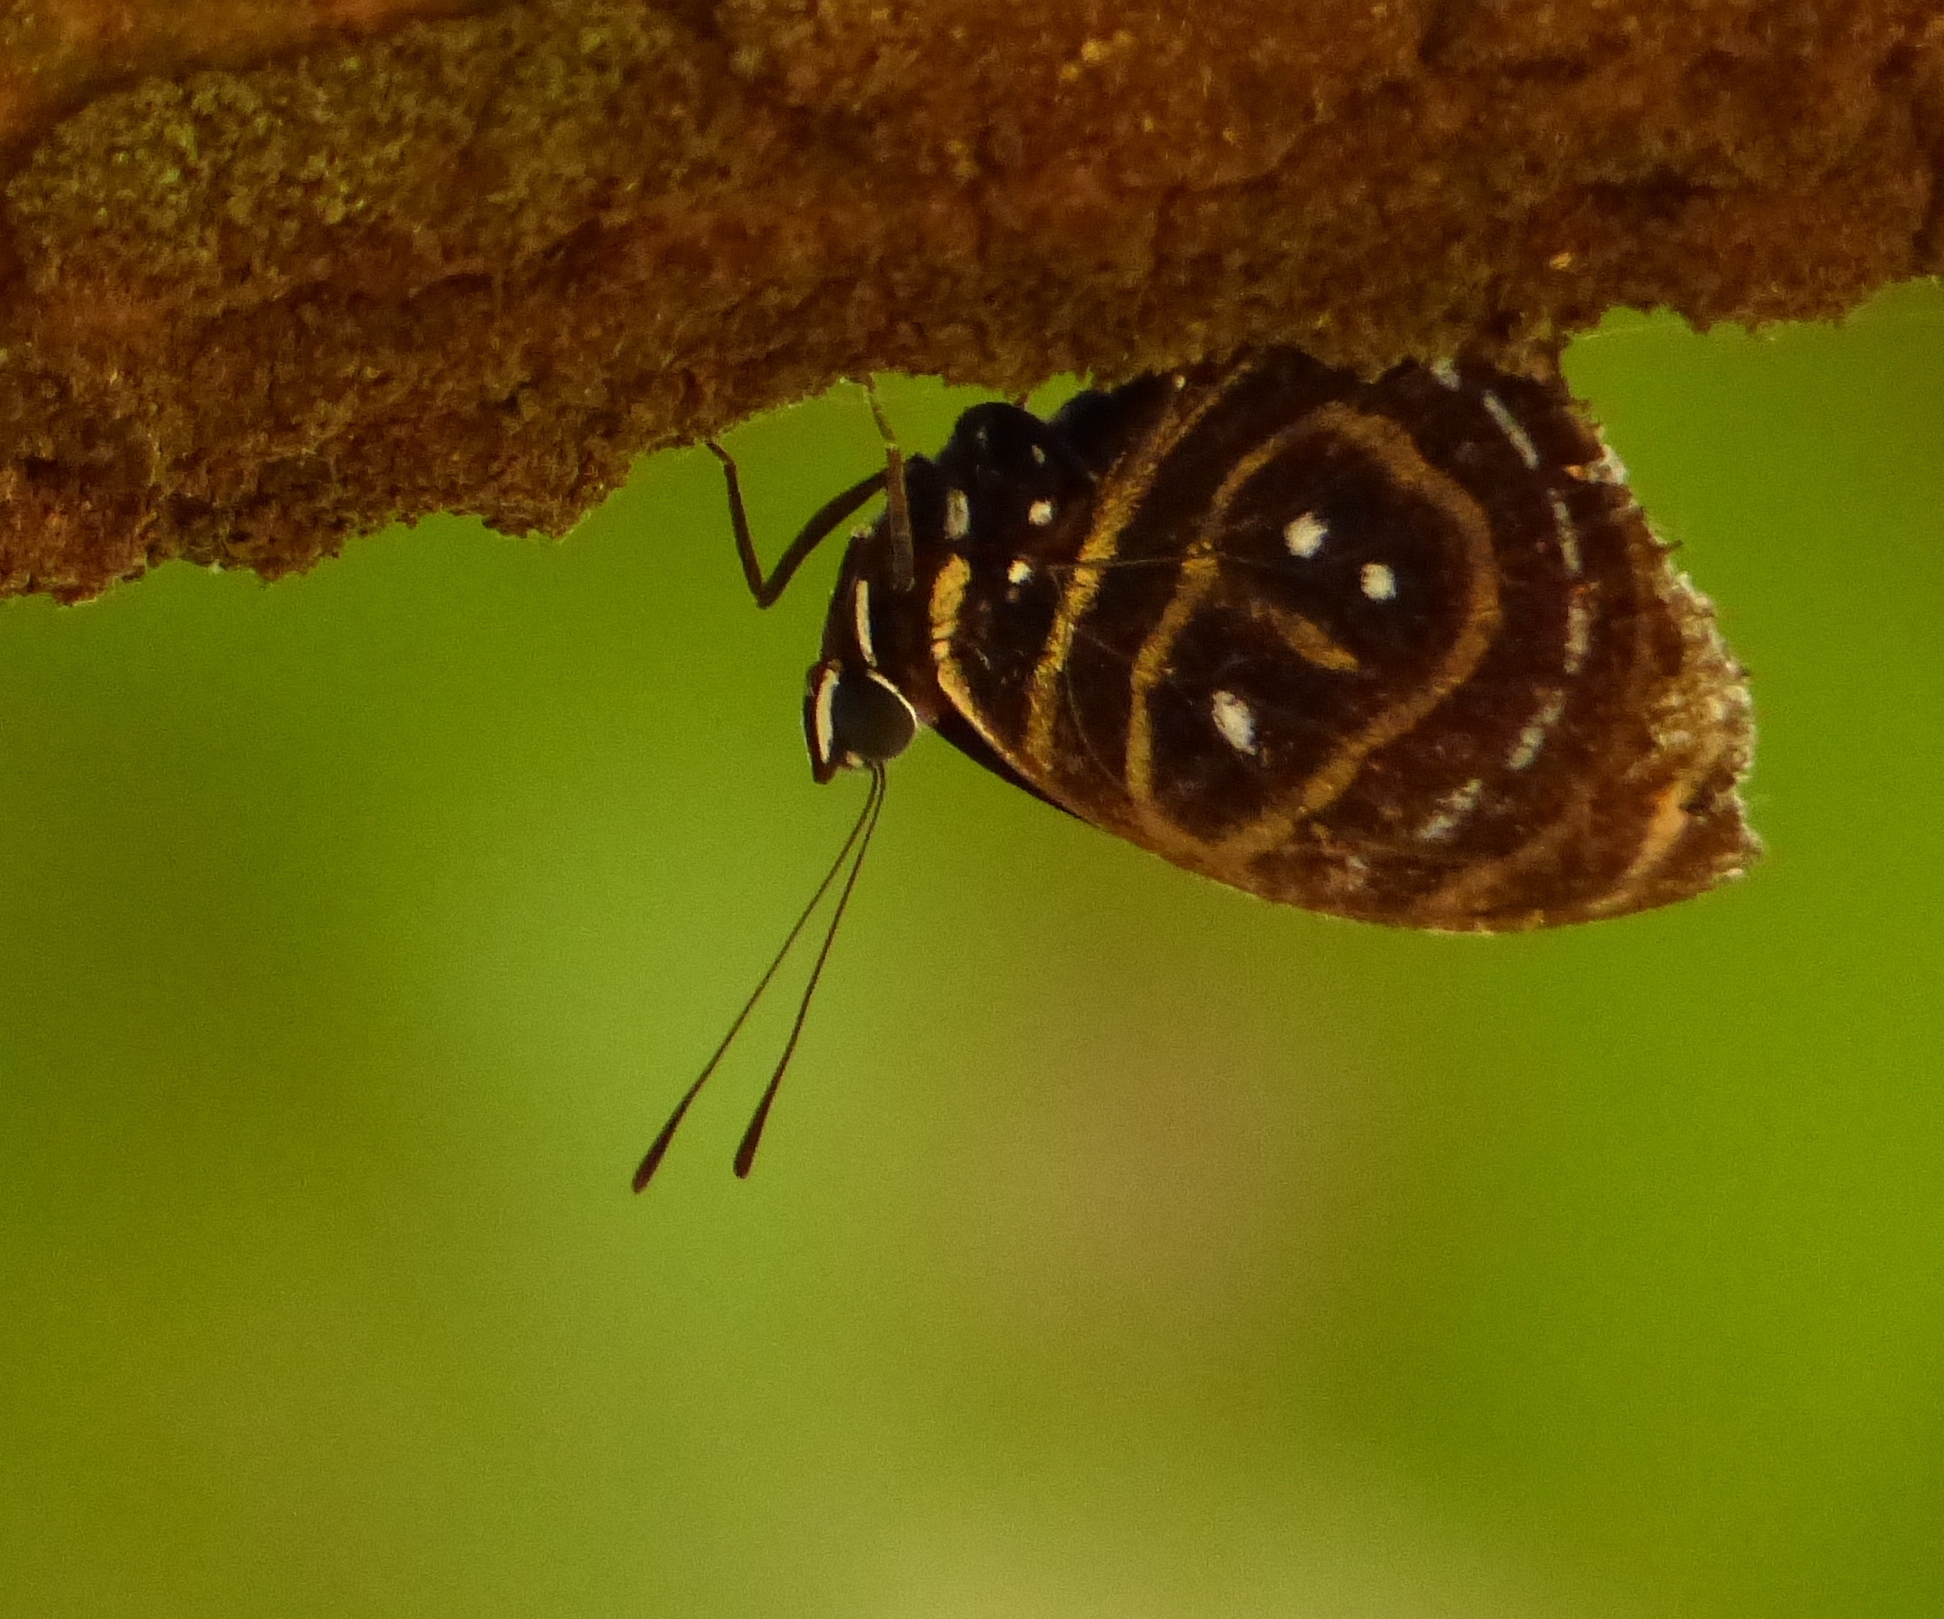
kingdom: Animalia
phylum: Arthropoda
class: Insecta
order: Lepidoptera
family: Nymphalidae
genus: Catagramma
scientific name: Catagramma astarte
